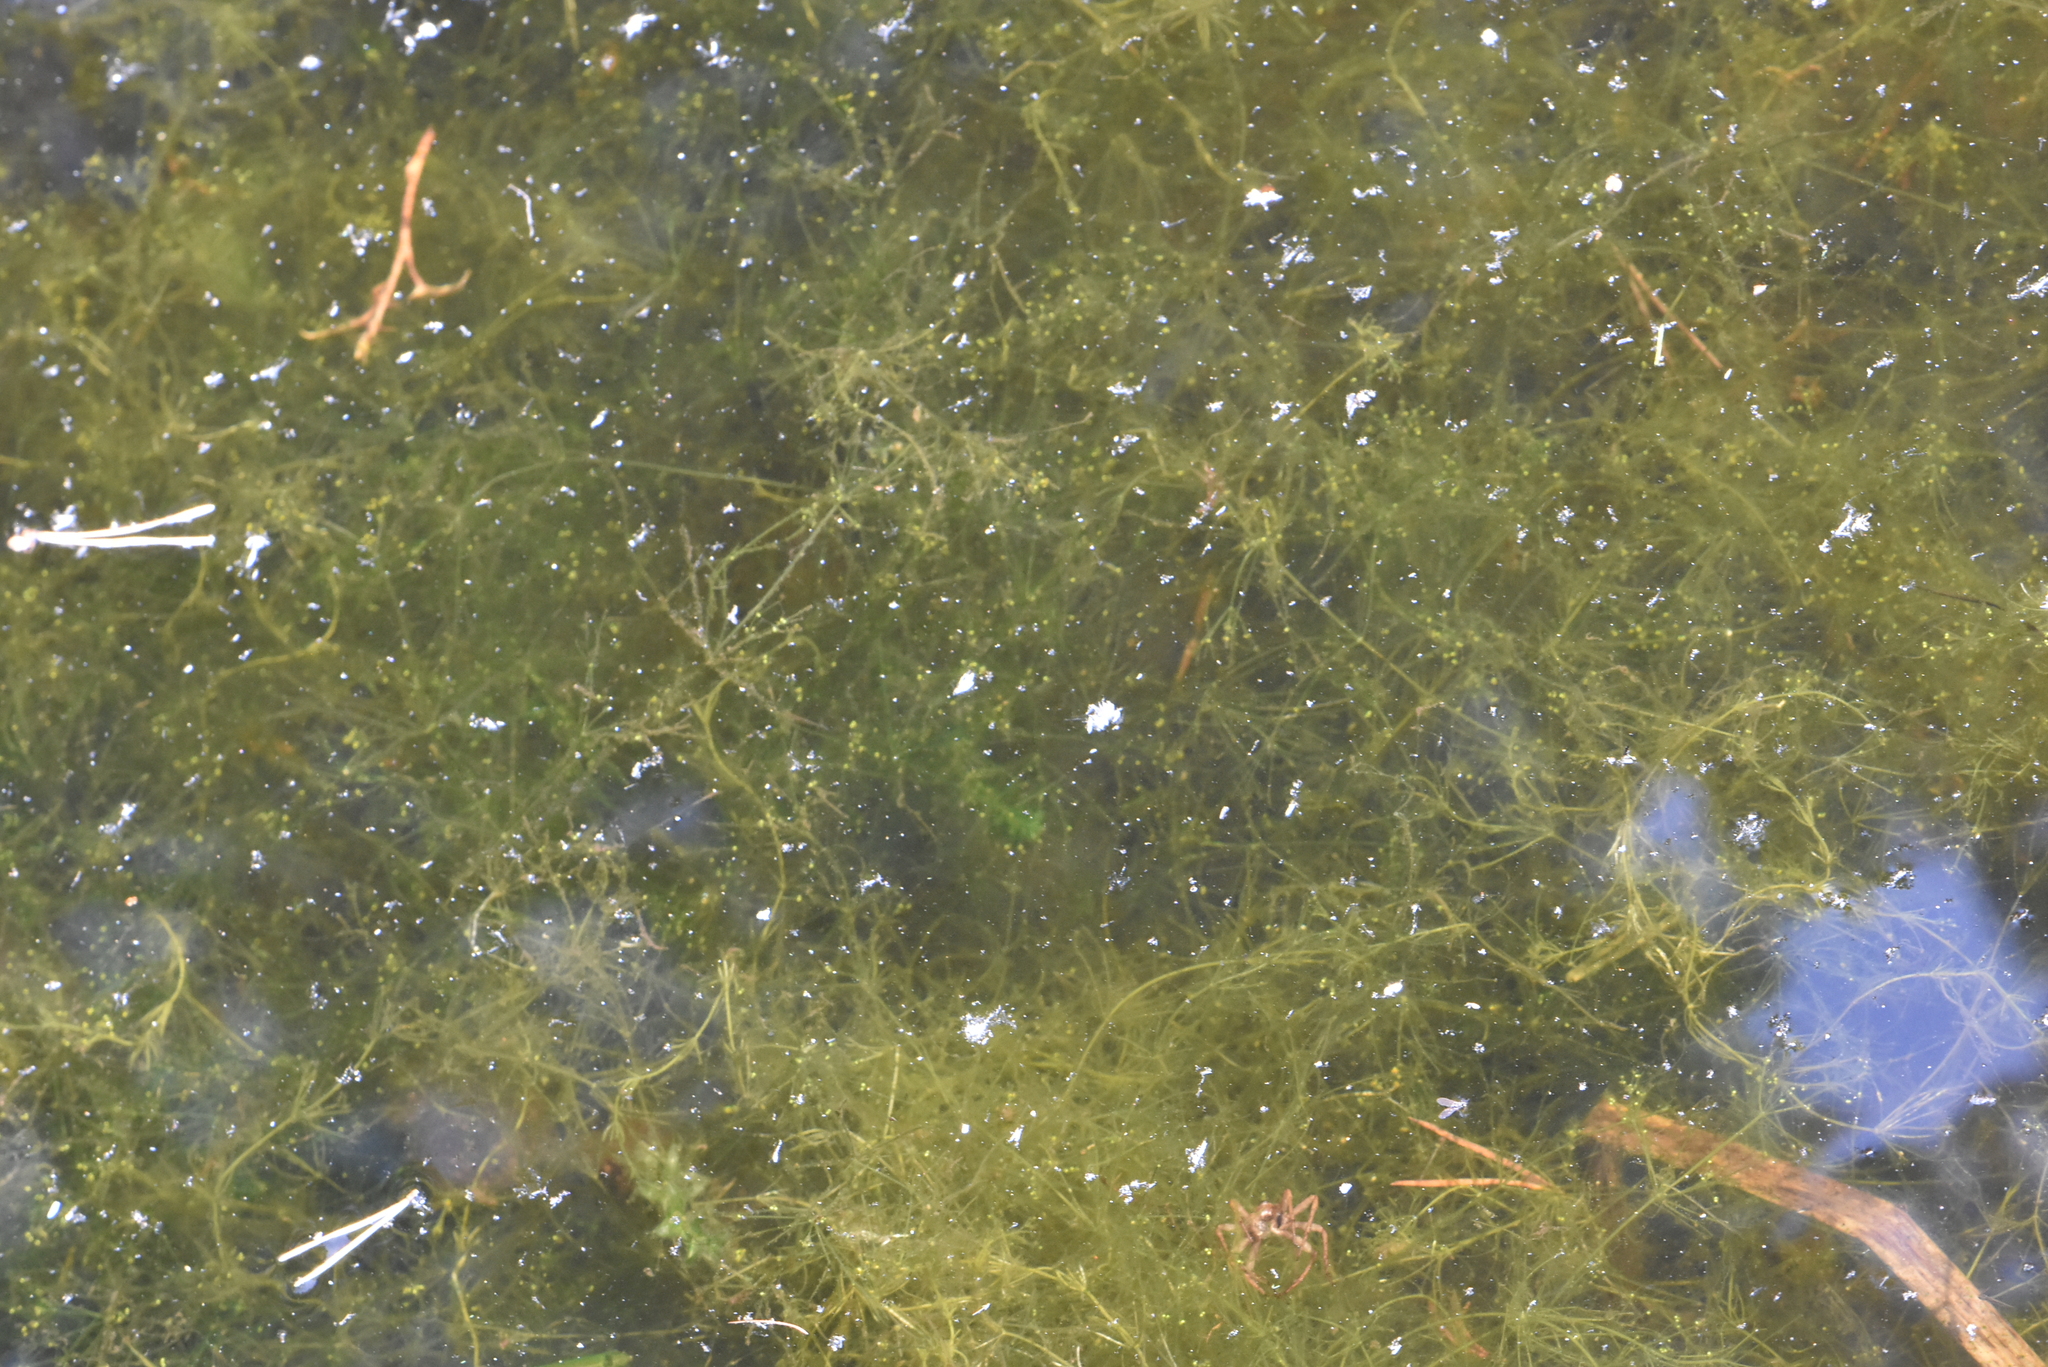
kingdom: Plantae
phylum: Charophyta
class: Charophyceae
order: Charales
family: Characeae
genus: Nitella
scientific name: Nitella flexilis
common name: Smooth stonewort
